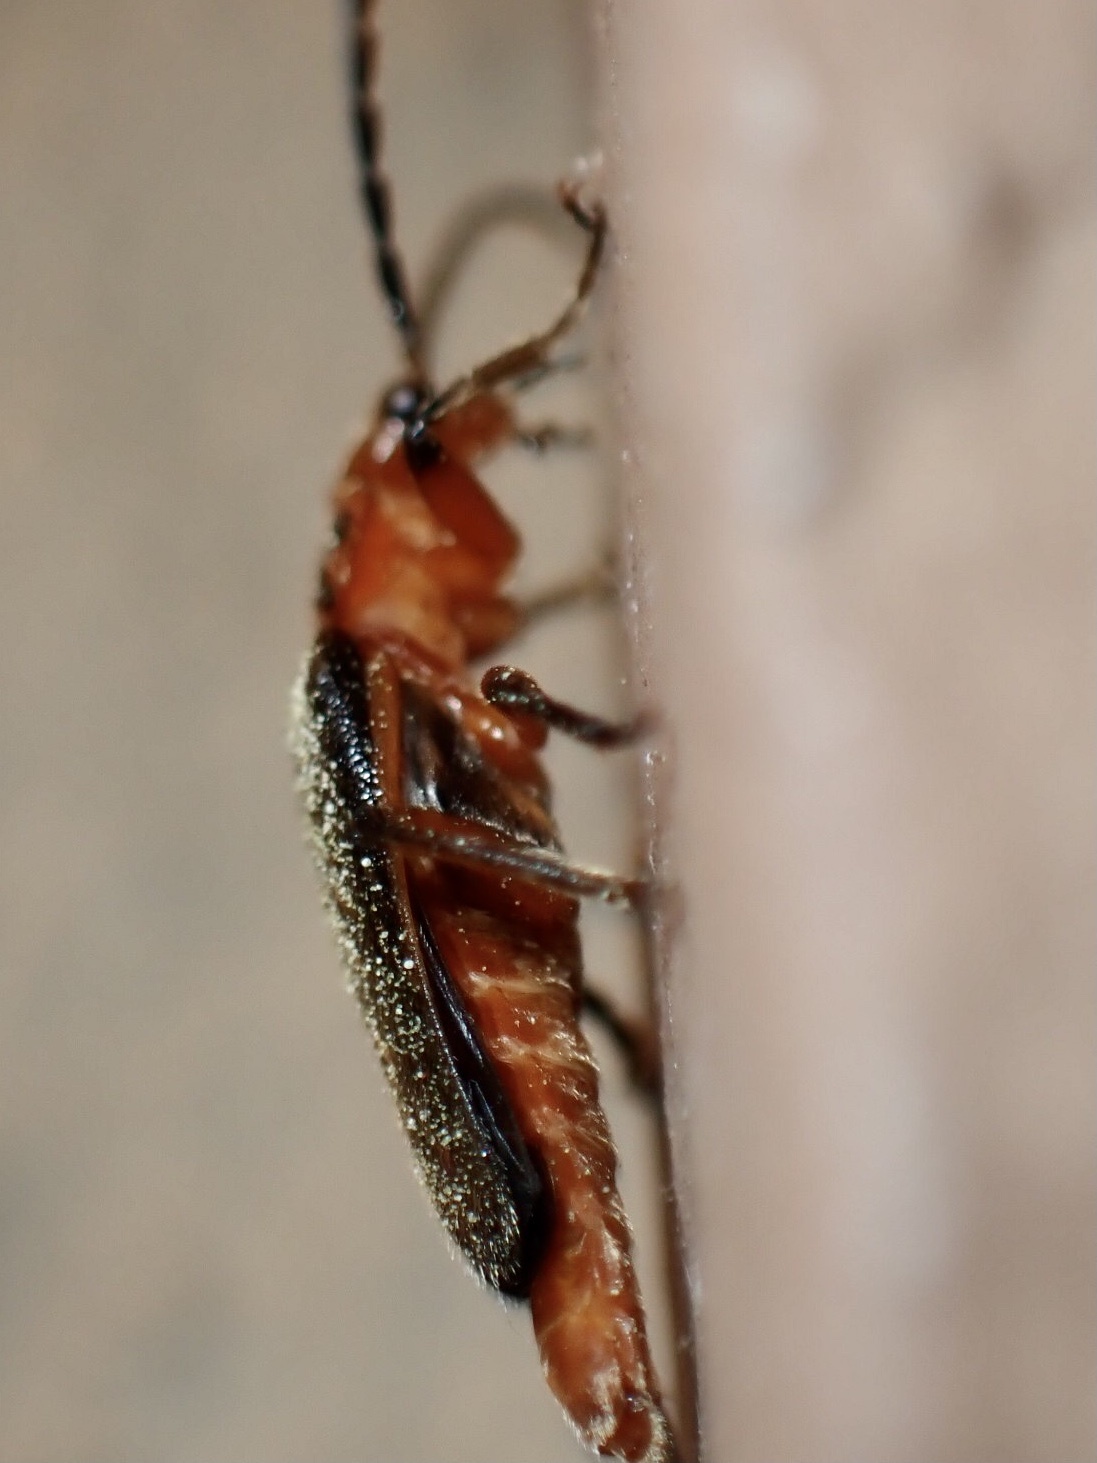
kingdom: Animalia
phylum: Arthropoda
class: Insecta
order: Coleoptera
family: Cantharidae
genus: Atalantycha
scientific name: Atalantycha bilineata
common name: Two-lined leatherwing
